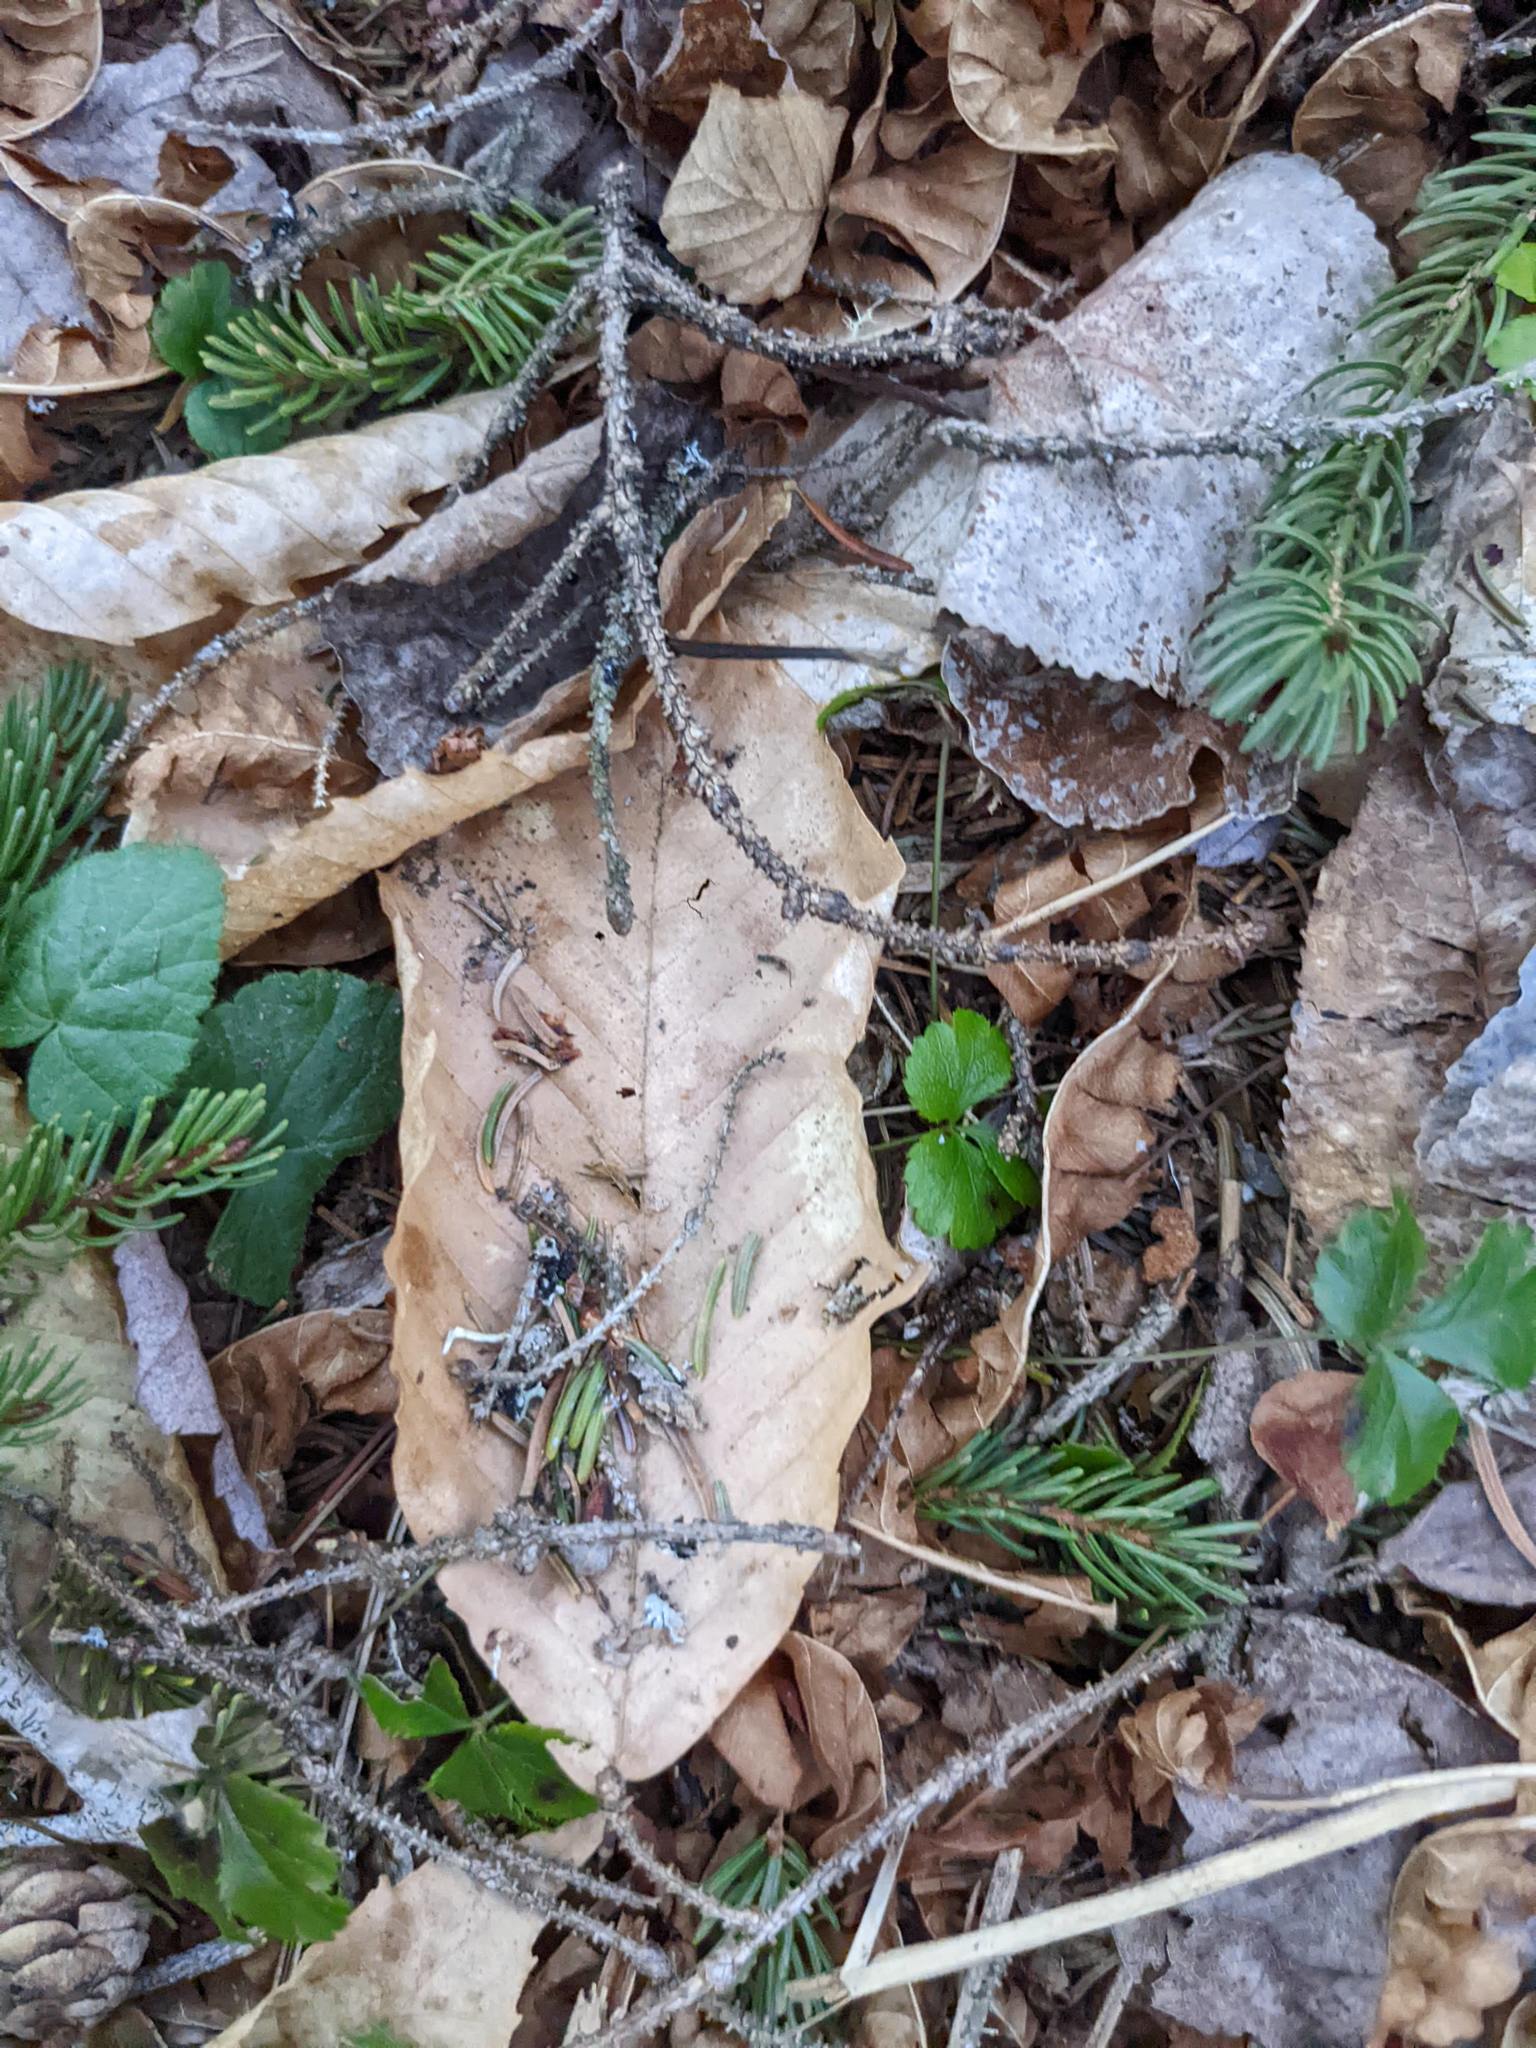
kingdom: Plantae
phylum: Tracheophyta
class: Magnoliopsida
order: Fagales
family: Fagaceae
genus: Fagus
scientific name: Fagus grandifolia
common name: American beech
